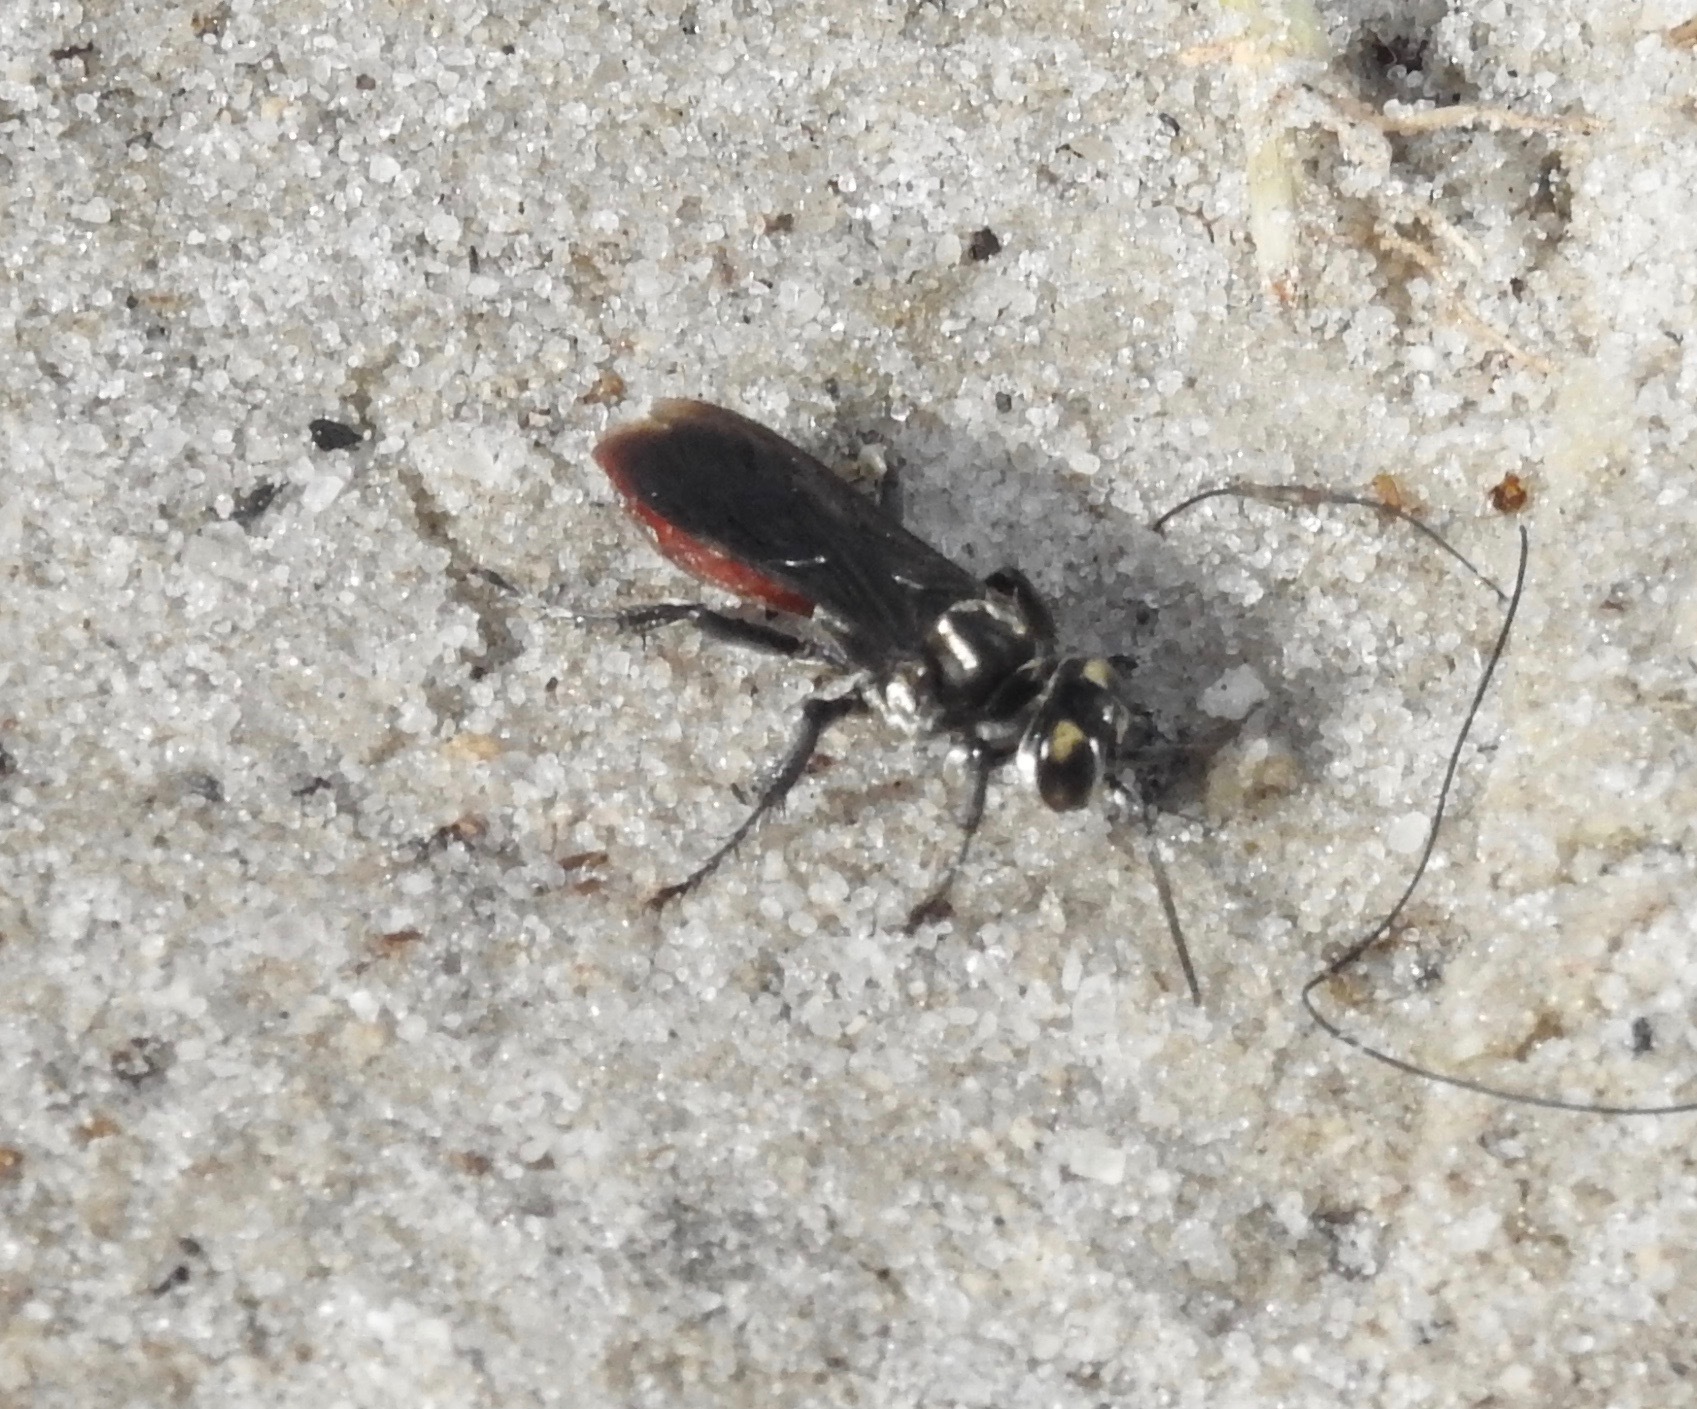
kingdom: Animalia
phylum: Arthropoda
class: Insecta
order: Hymenoptera
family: Crabronidae
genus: Larra
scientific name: Larra bicolor
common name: Wasp
